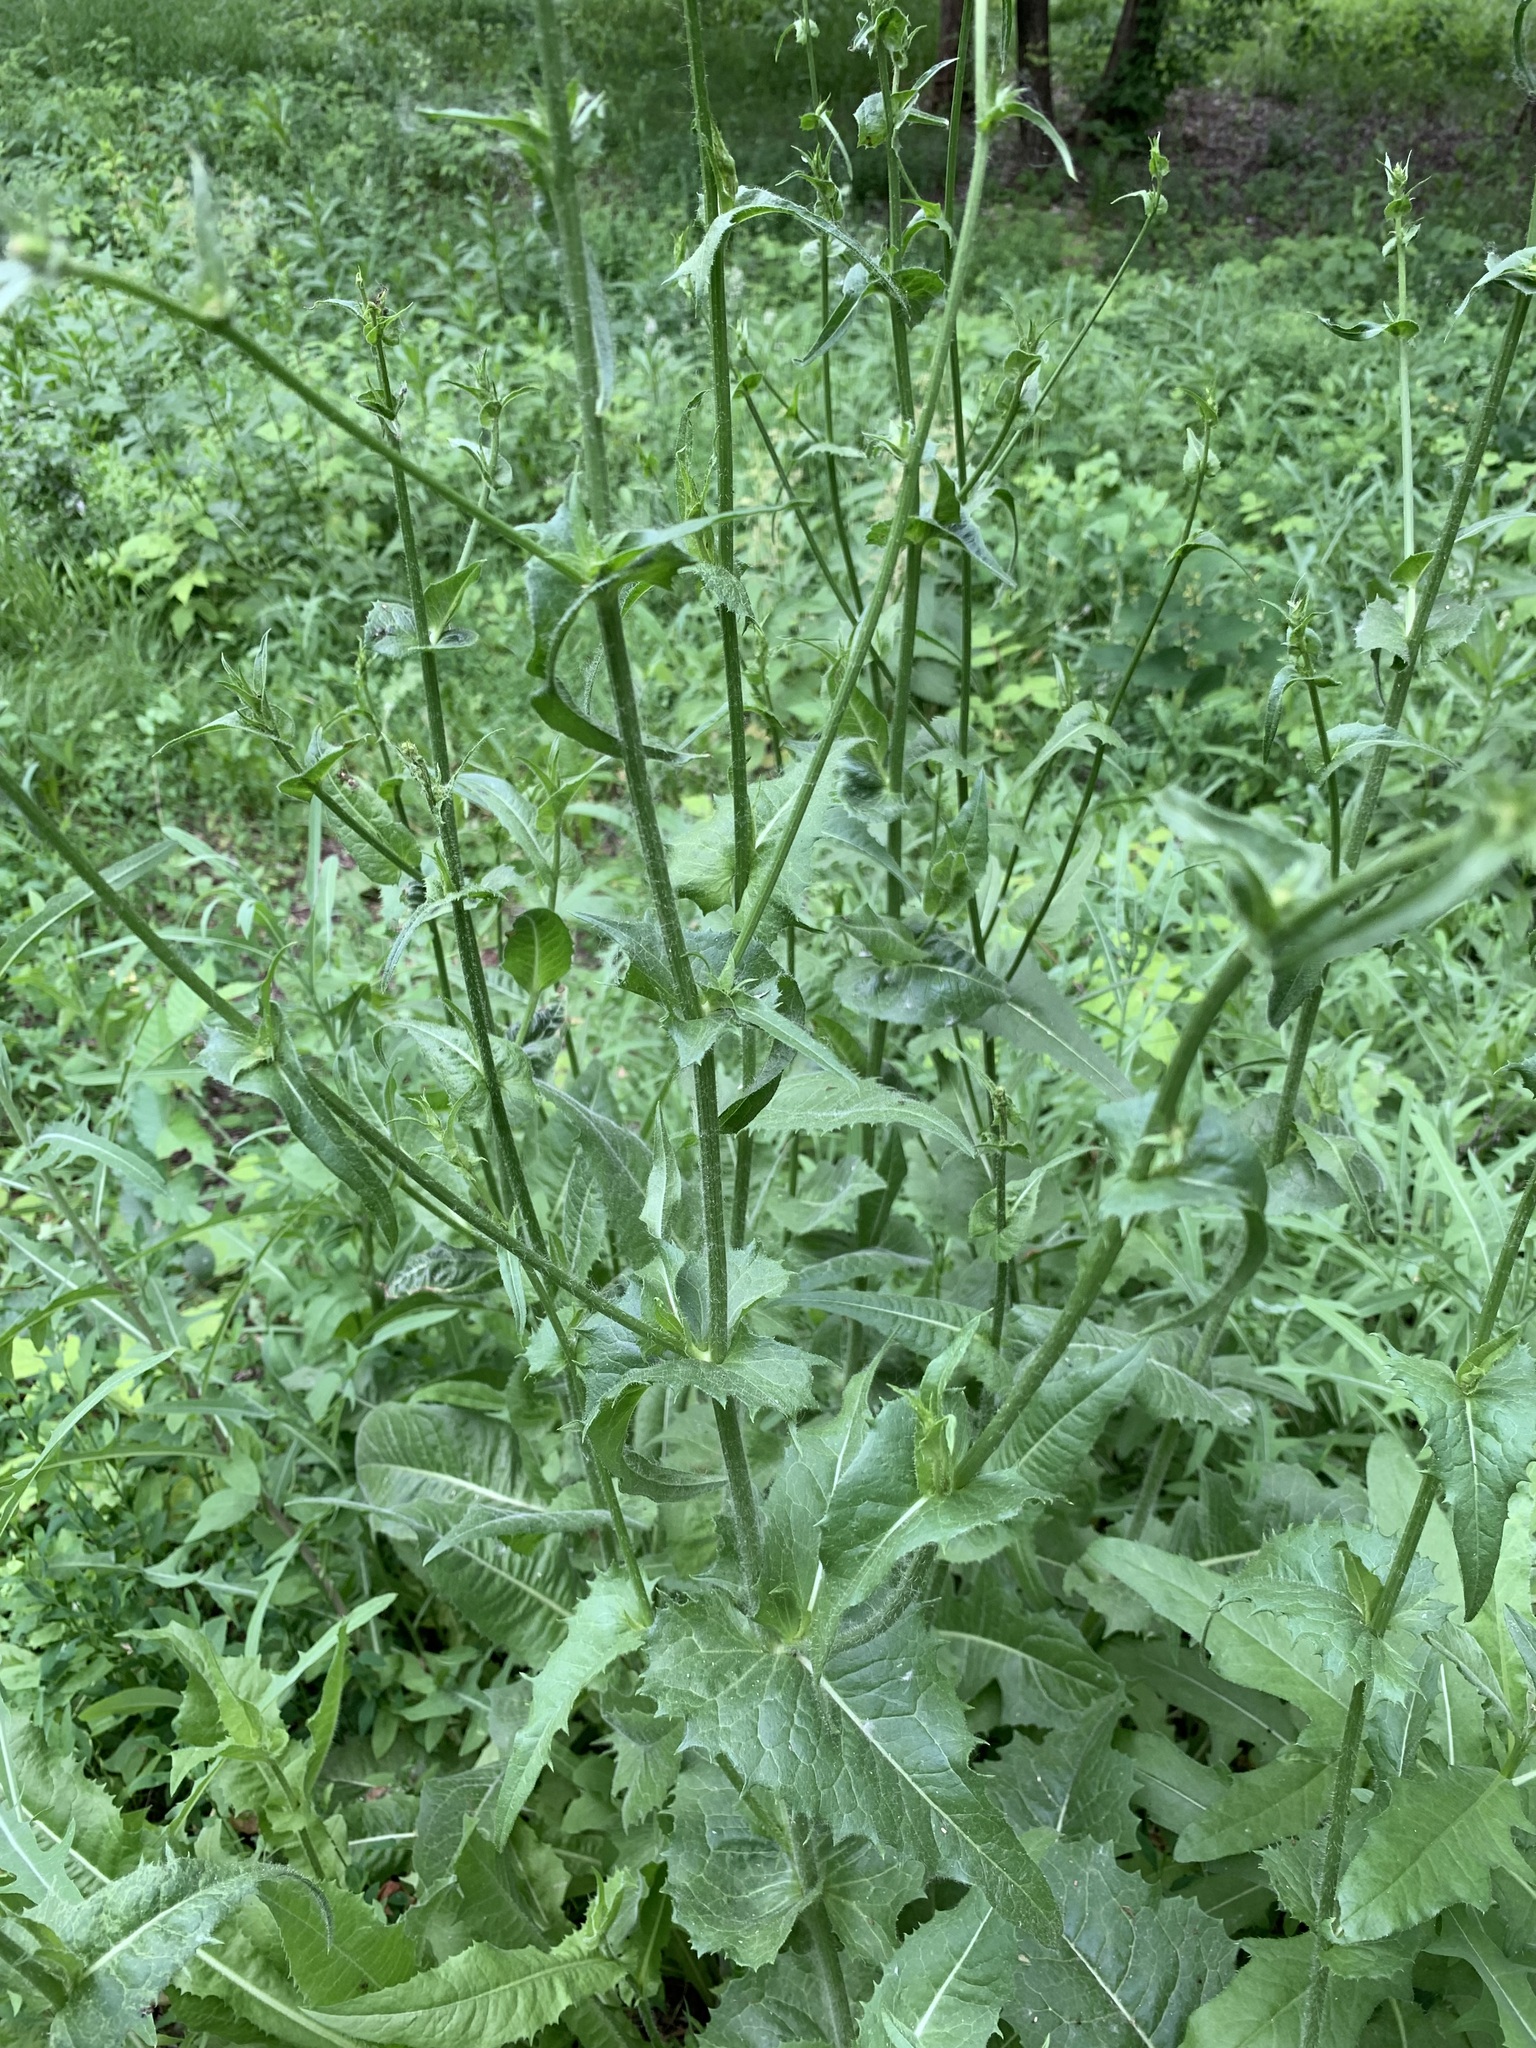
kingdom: Plantae
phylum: Tracheophyta
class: Magnoliopsida
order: Asterales
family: Asteraceae
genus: Cichorium
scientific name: Cichorium intybus
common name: Chicory
